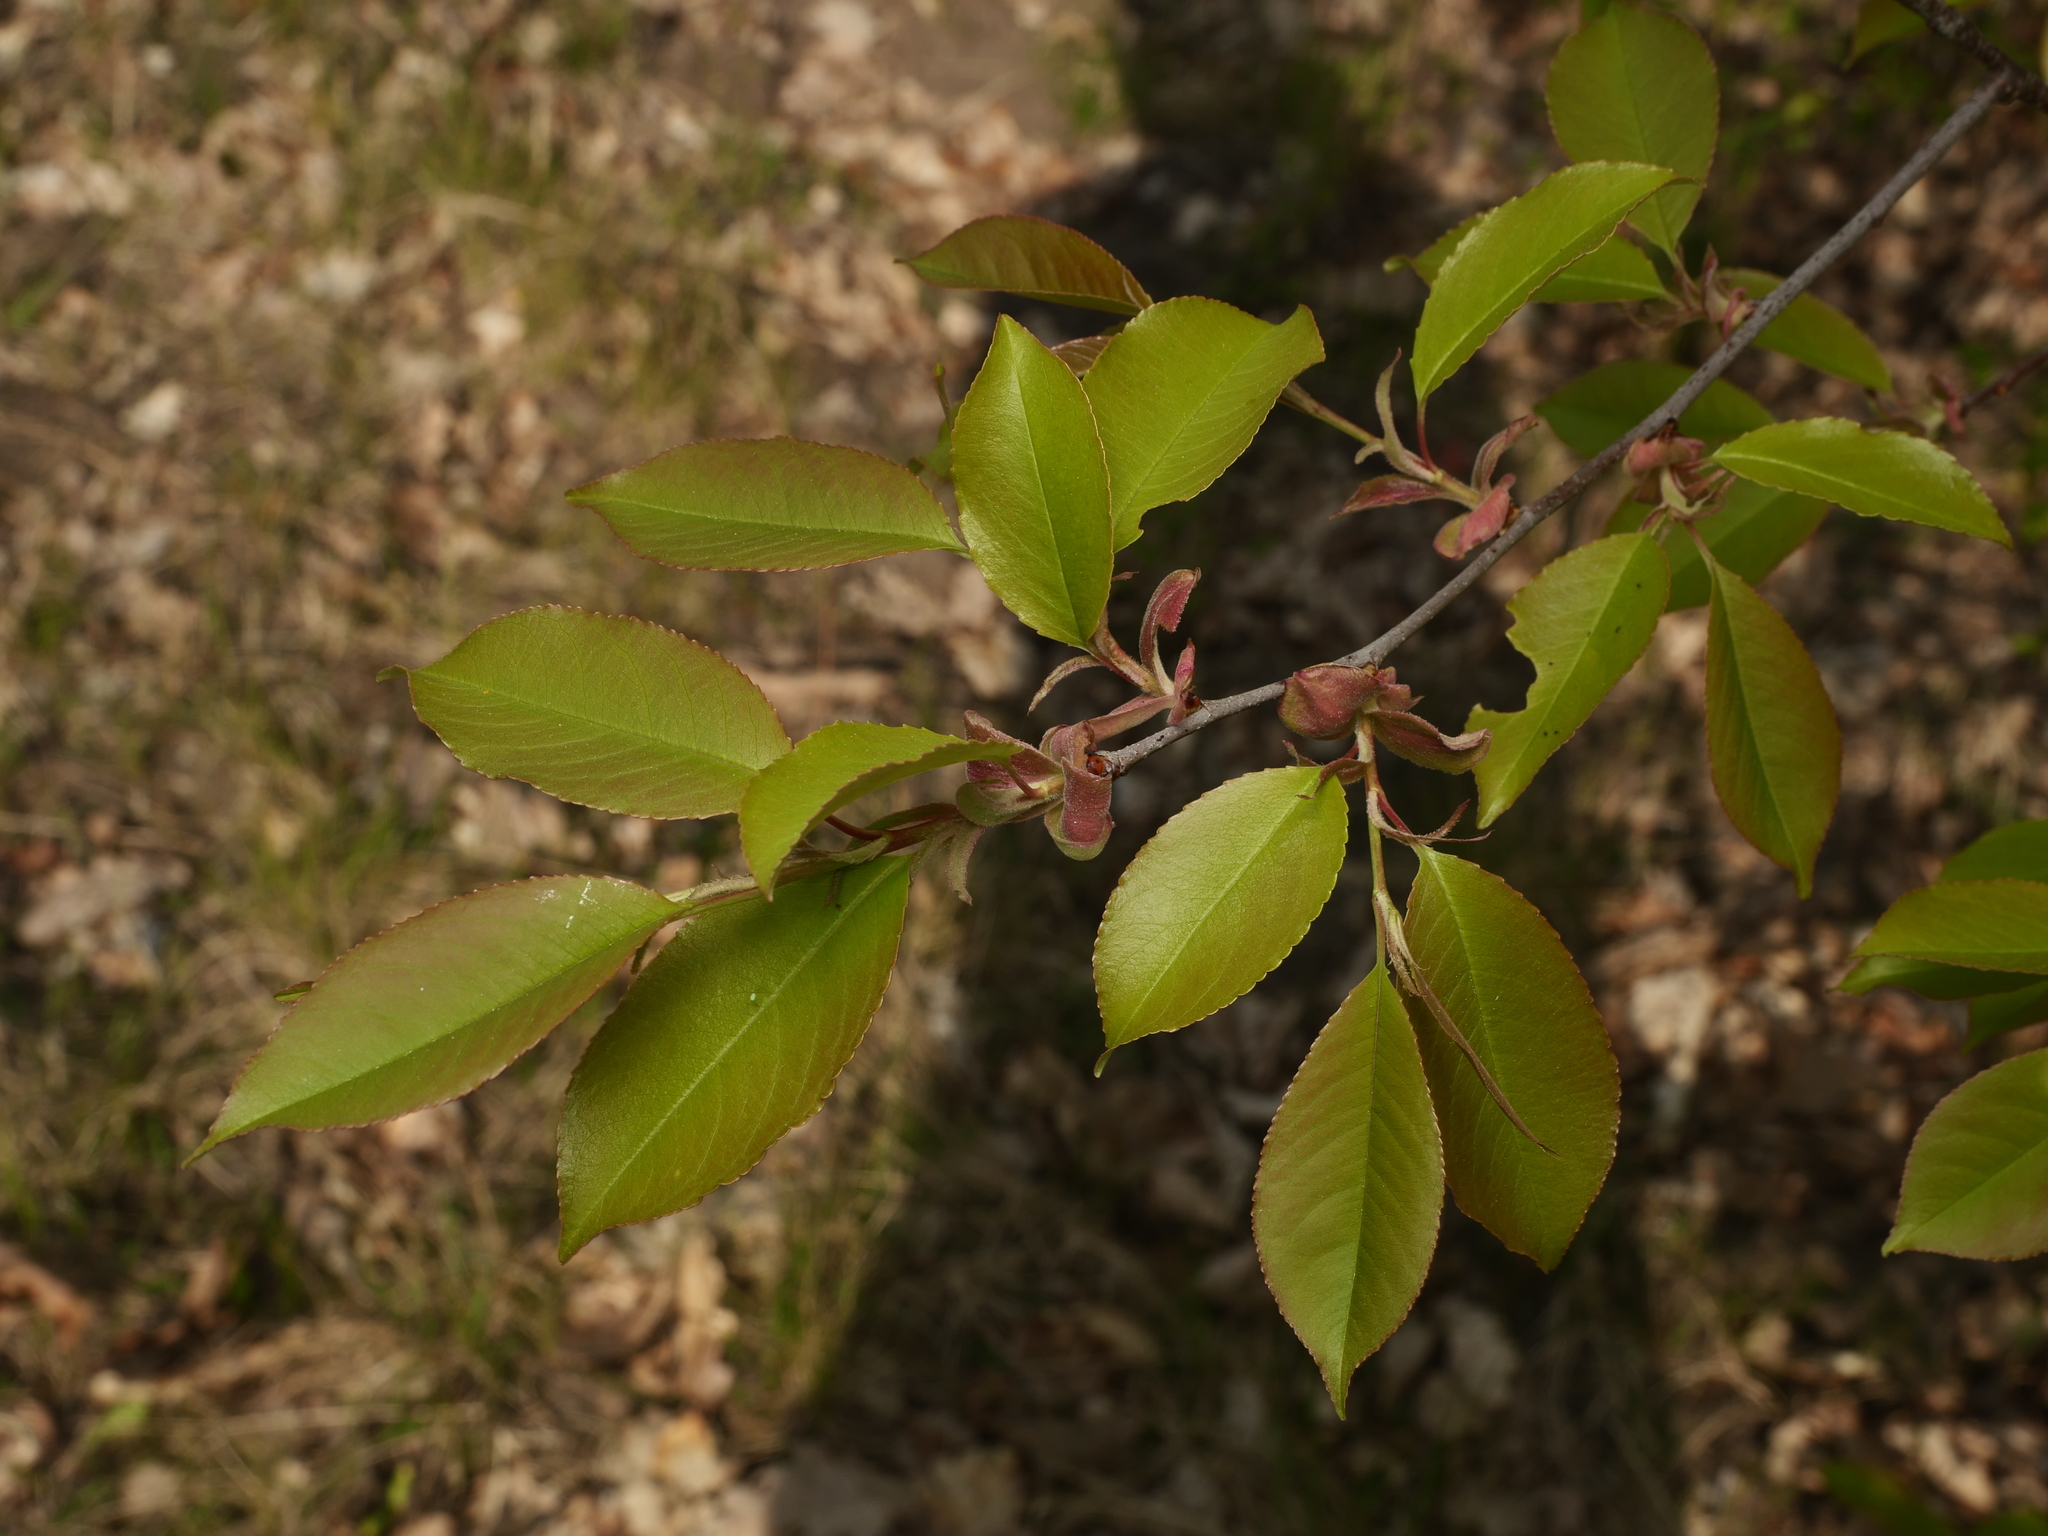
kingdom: Plantae
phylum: Tracheophyta
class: Magnoliopsida
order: Rosales
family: Rosaceae
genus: Prunus
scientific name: Prunus serotina
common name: Black cherry
